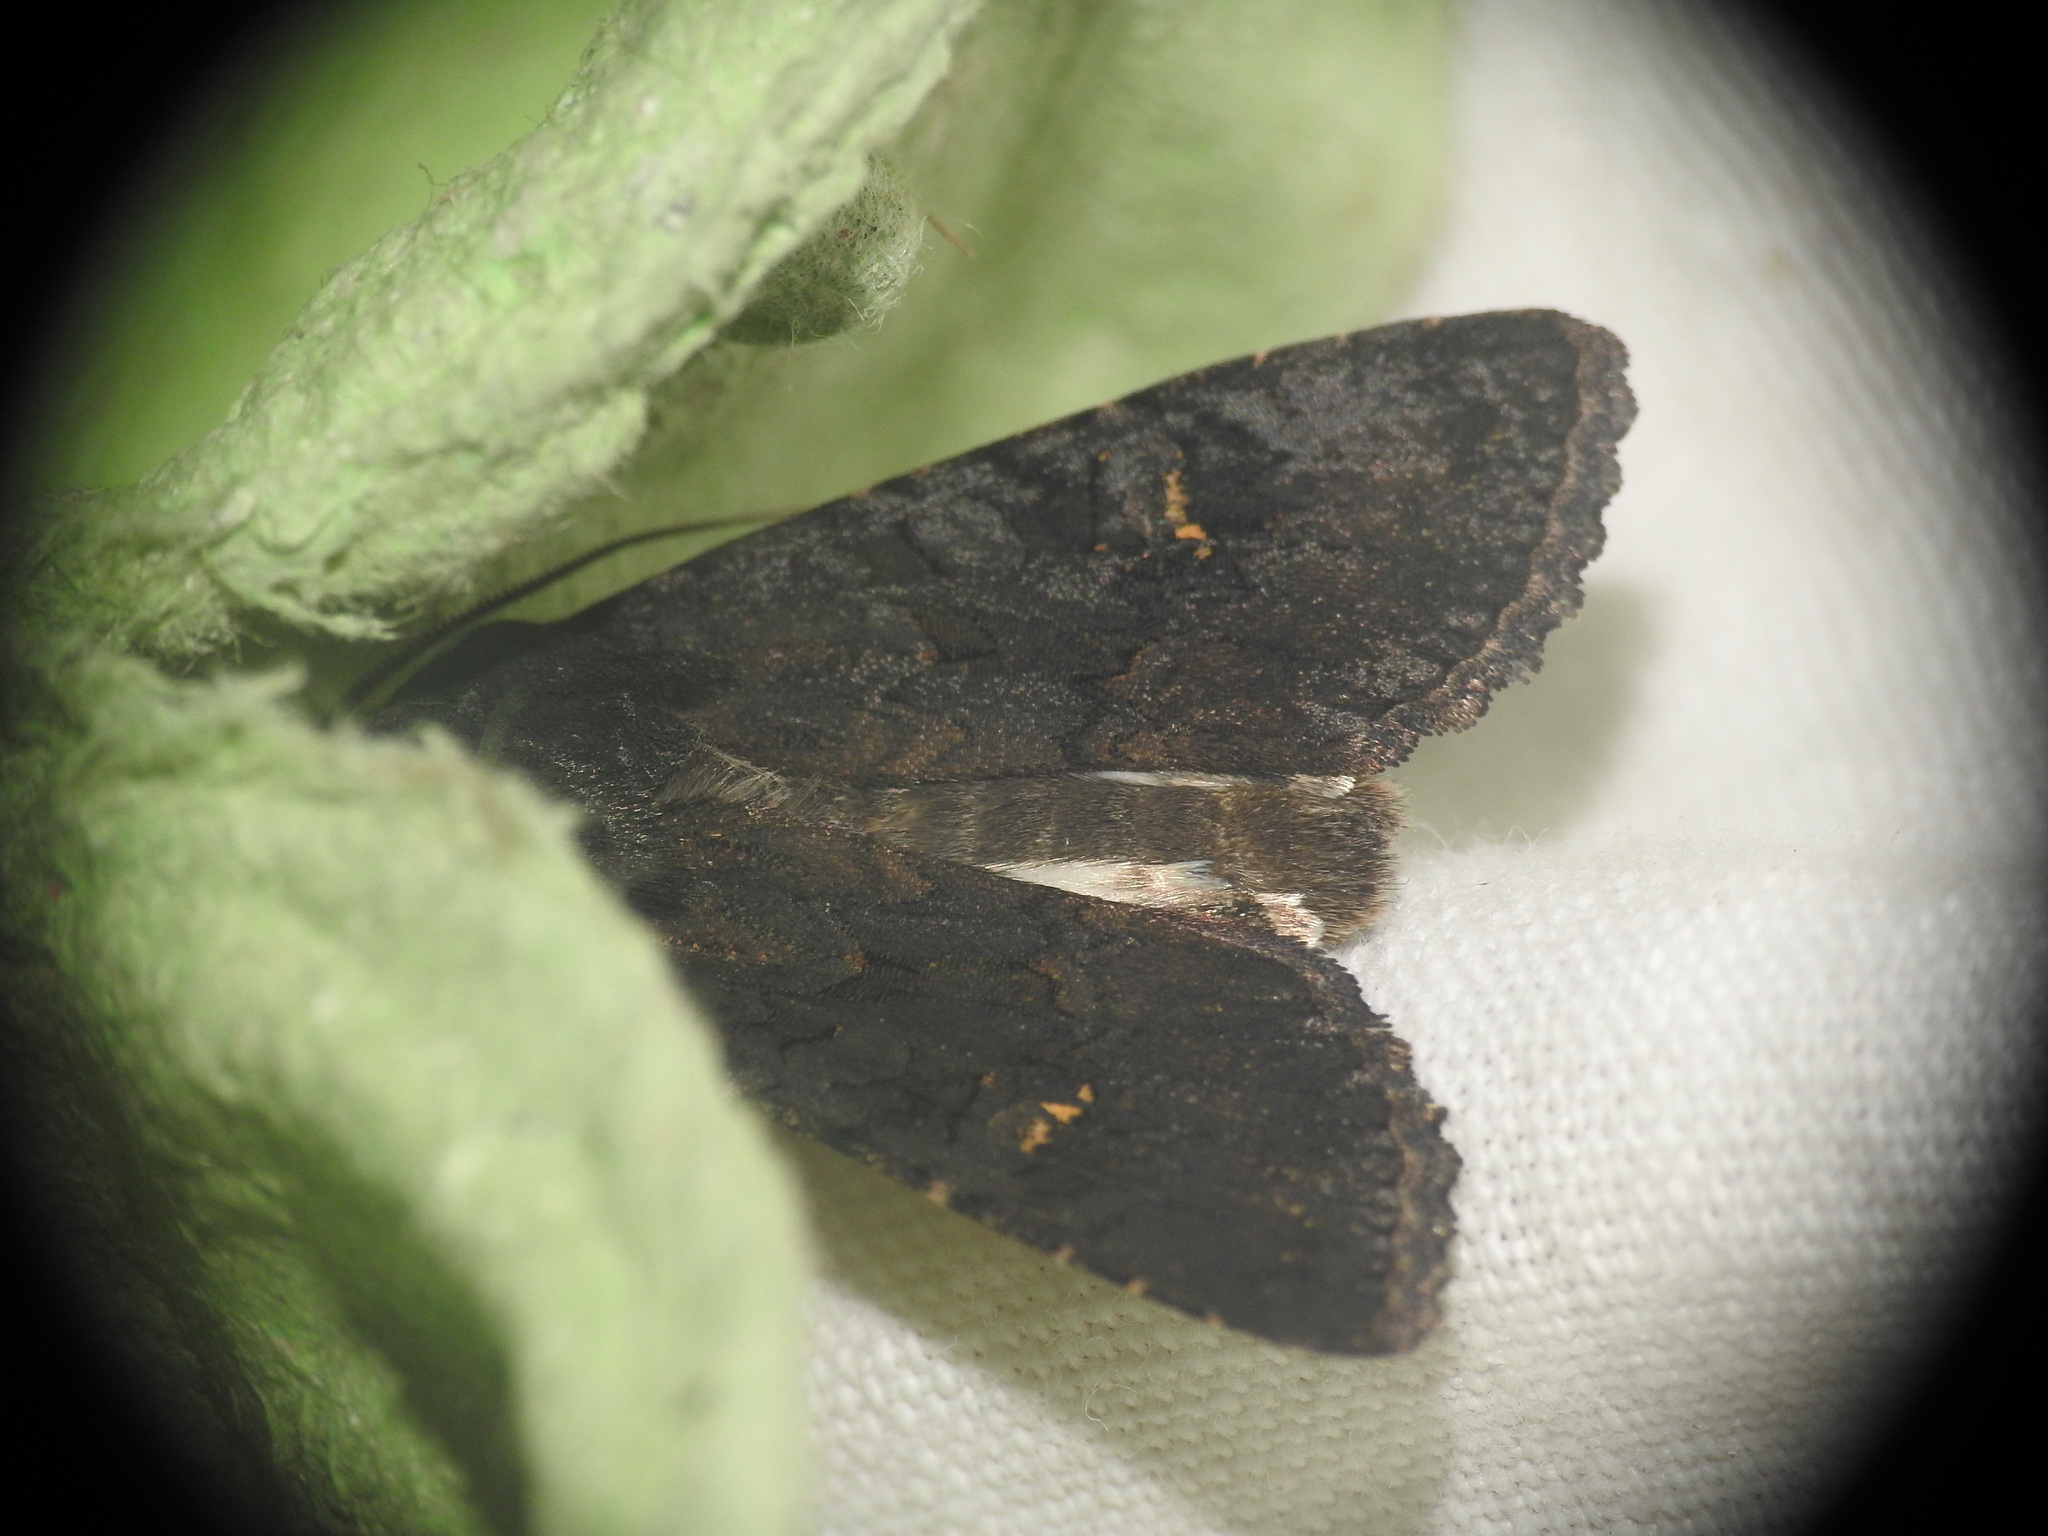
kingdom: Animalia
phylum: Arthropoda
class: Insecta
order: Lepidoptera
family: Noctuidae
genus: Aporophyla
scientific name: Aporophyla nigra
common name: Black rustic
